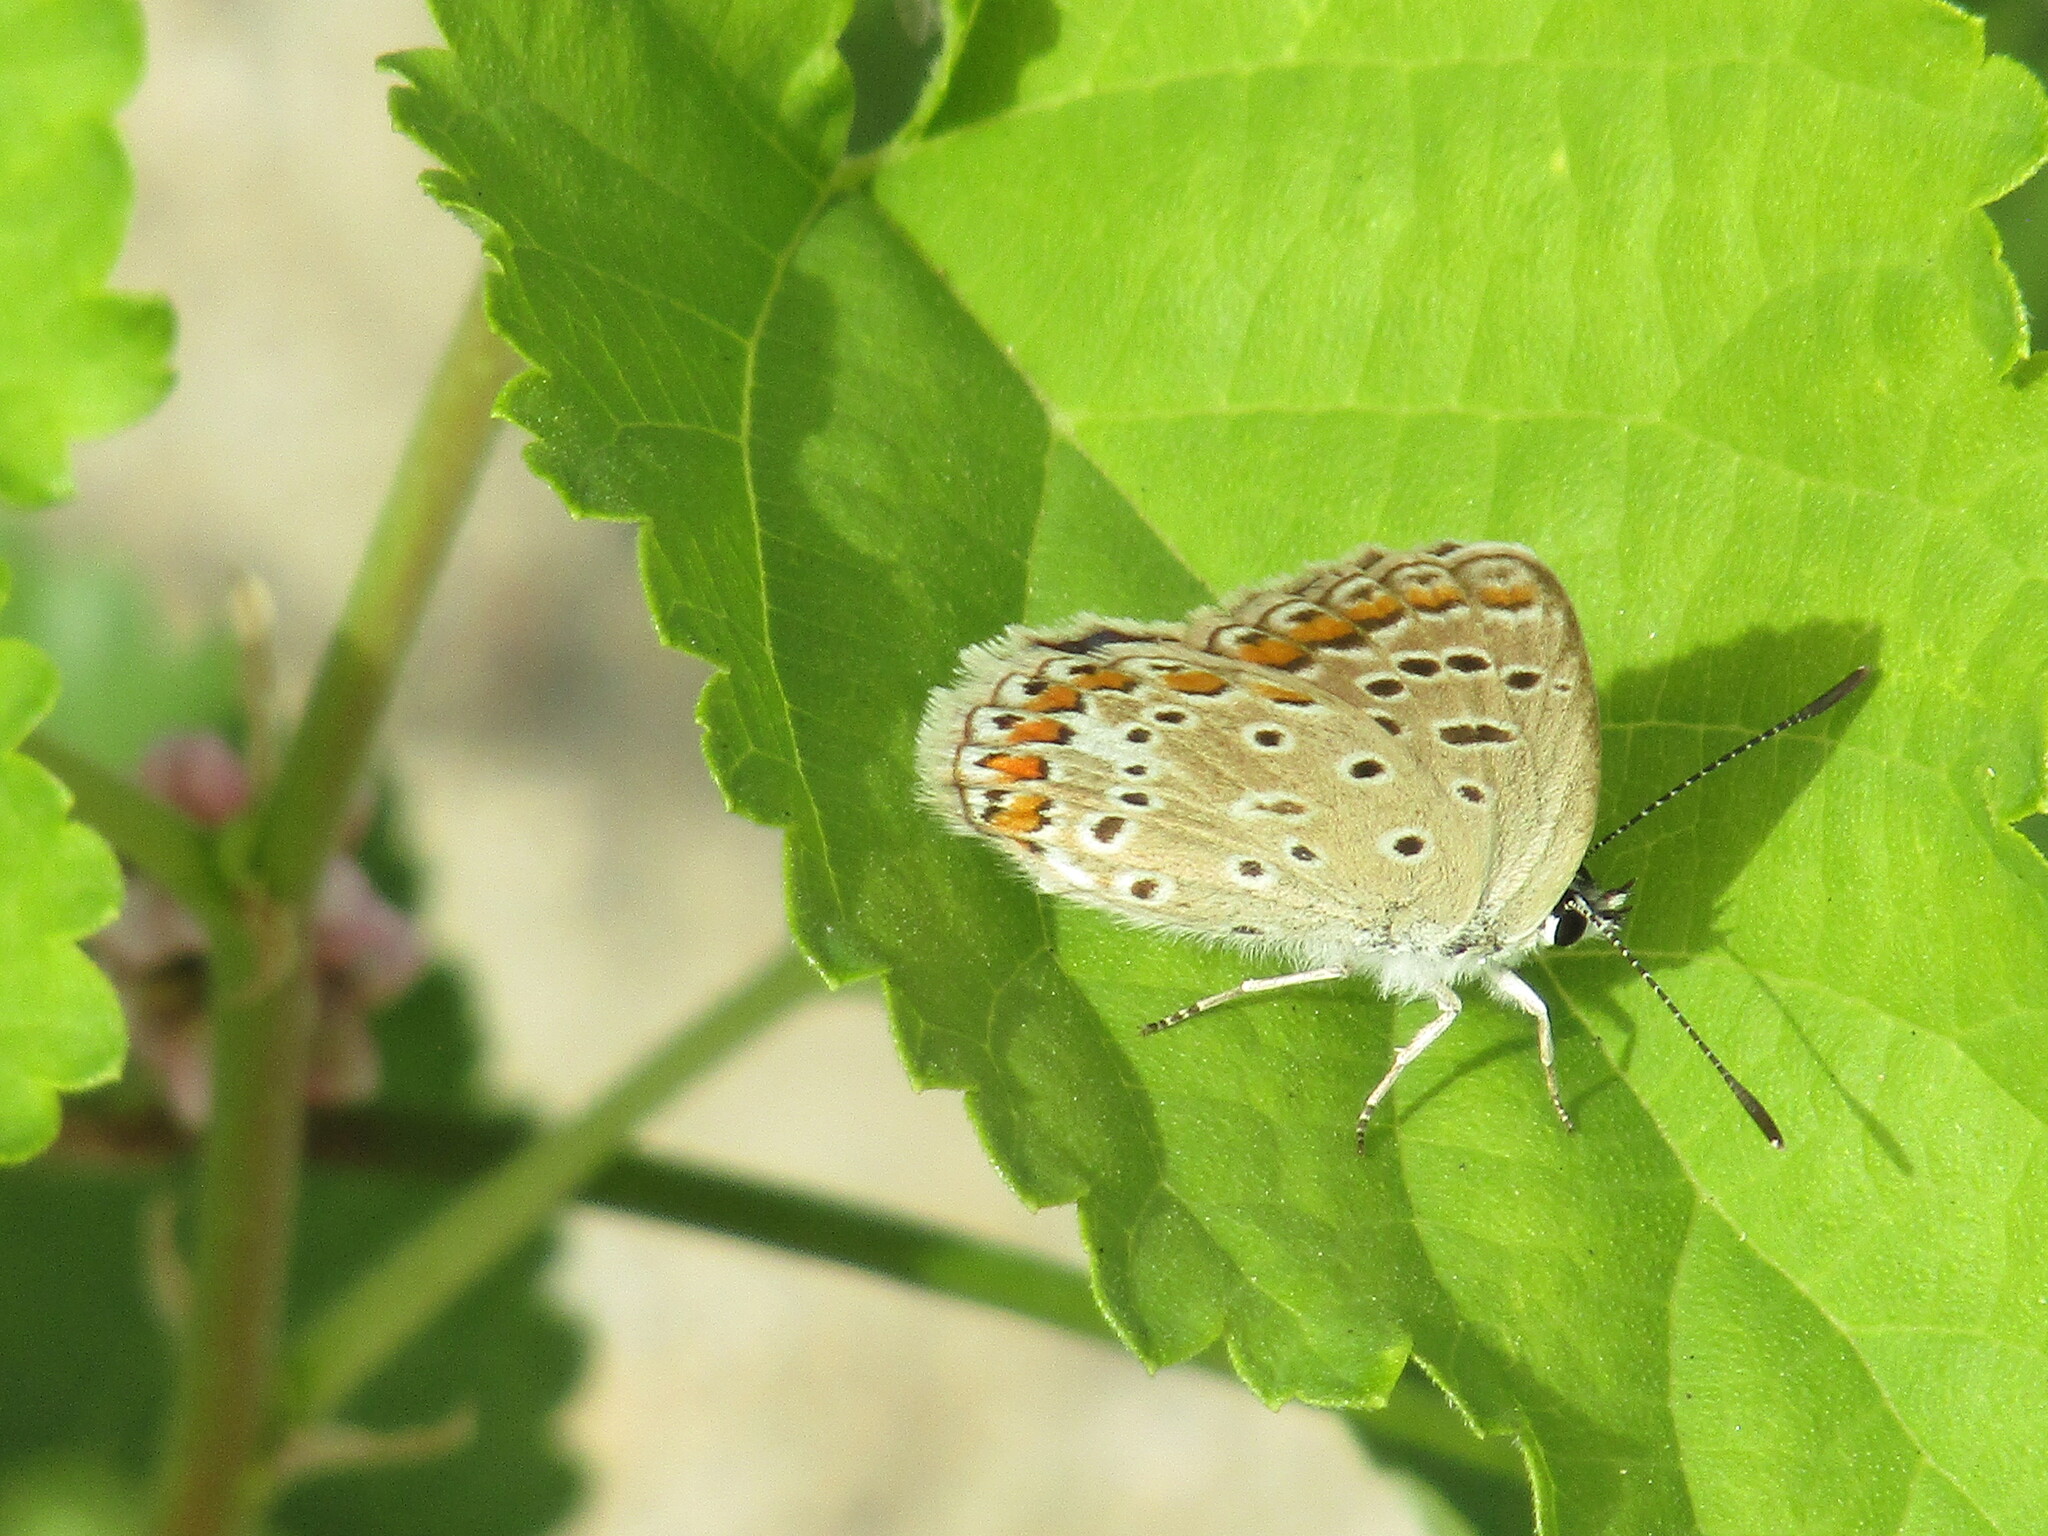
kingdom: Animalia
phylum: Arthropoda
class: Insecta
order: Lepidoptera
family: Lycaenidae
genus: Polyommatus
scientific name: Polyommatus icarus
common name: Common blue
